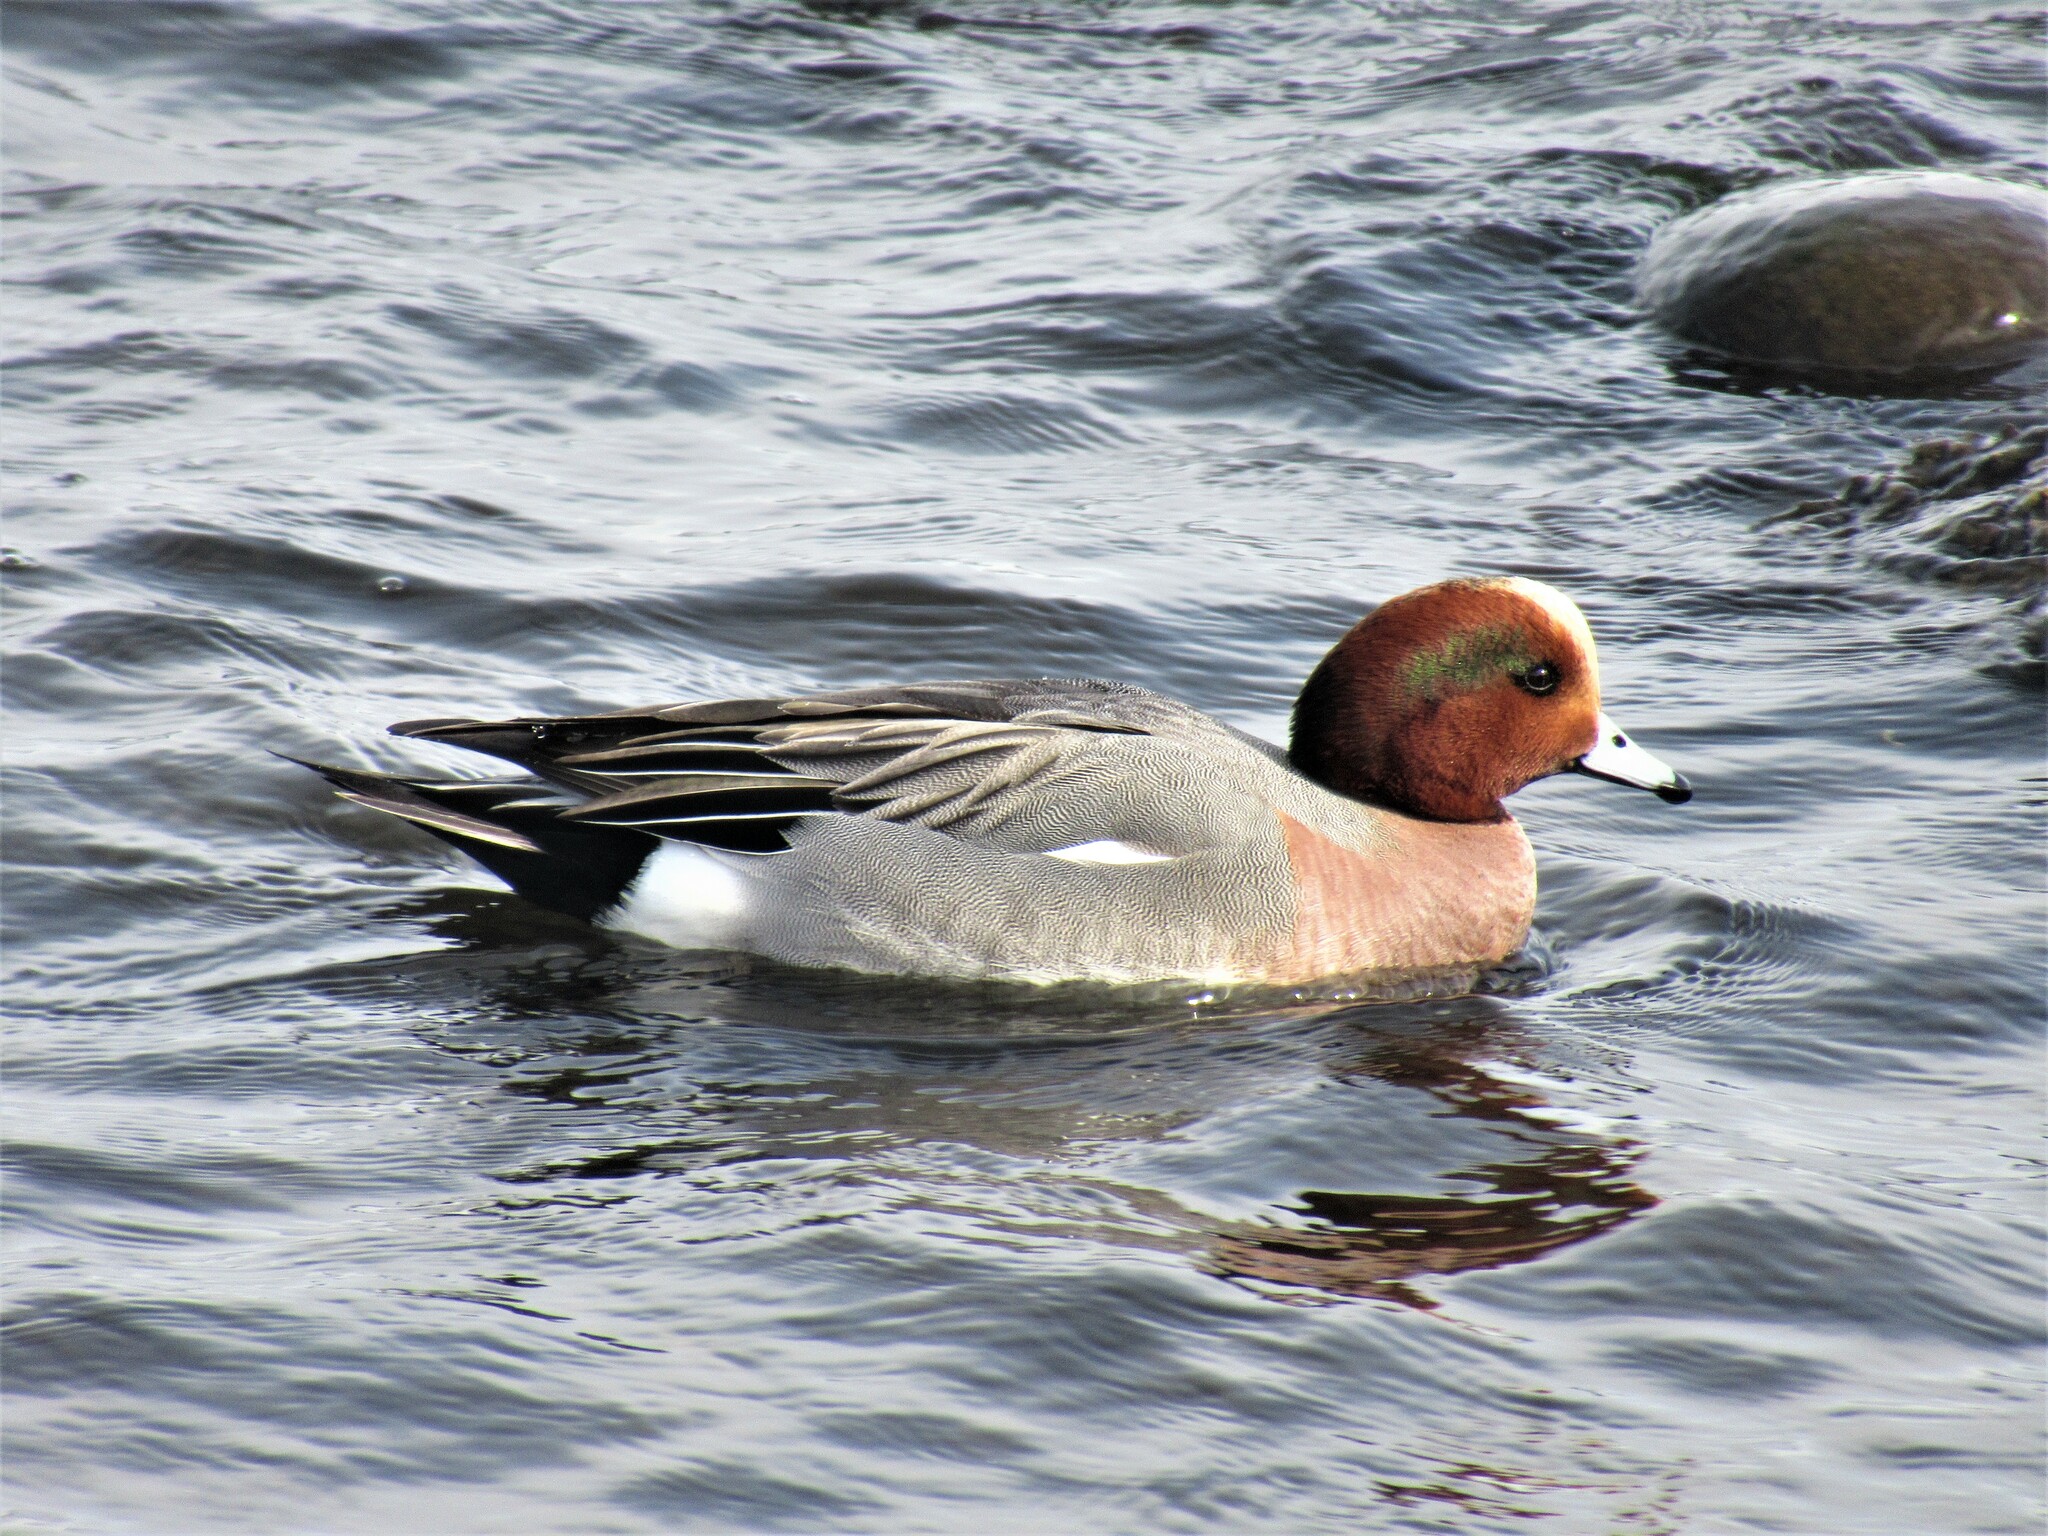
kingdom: Animalia
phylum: Chordata
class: Aves
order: Anseriformes
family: Anatidae
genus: Mareca
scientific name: Mareca
